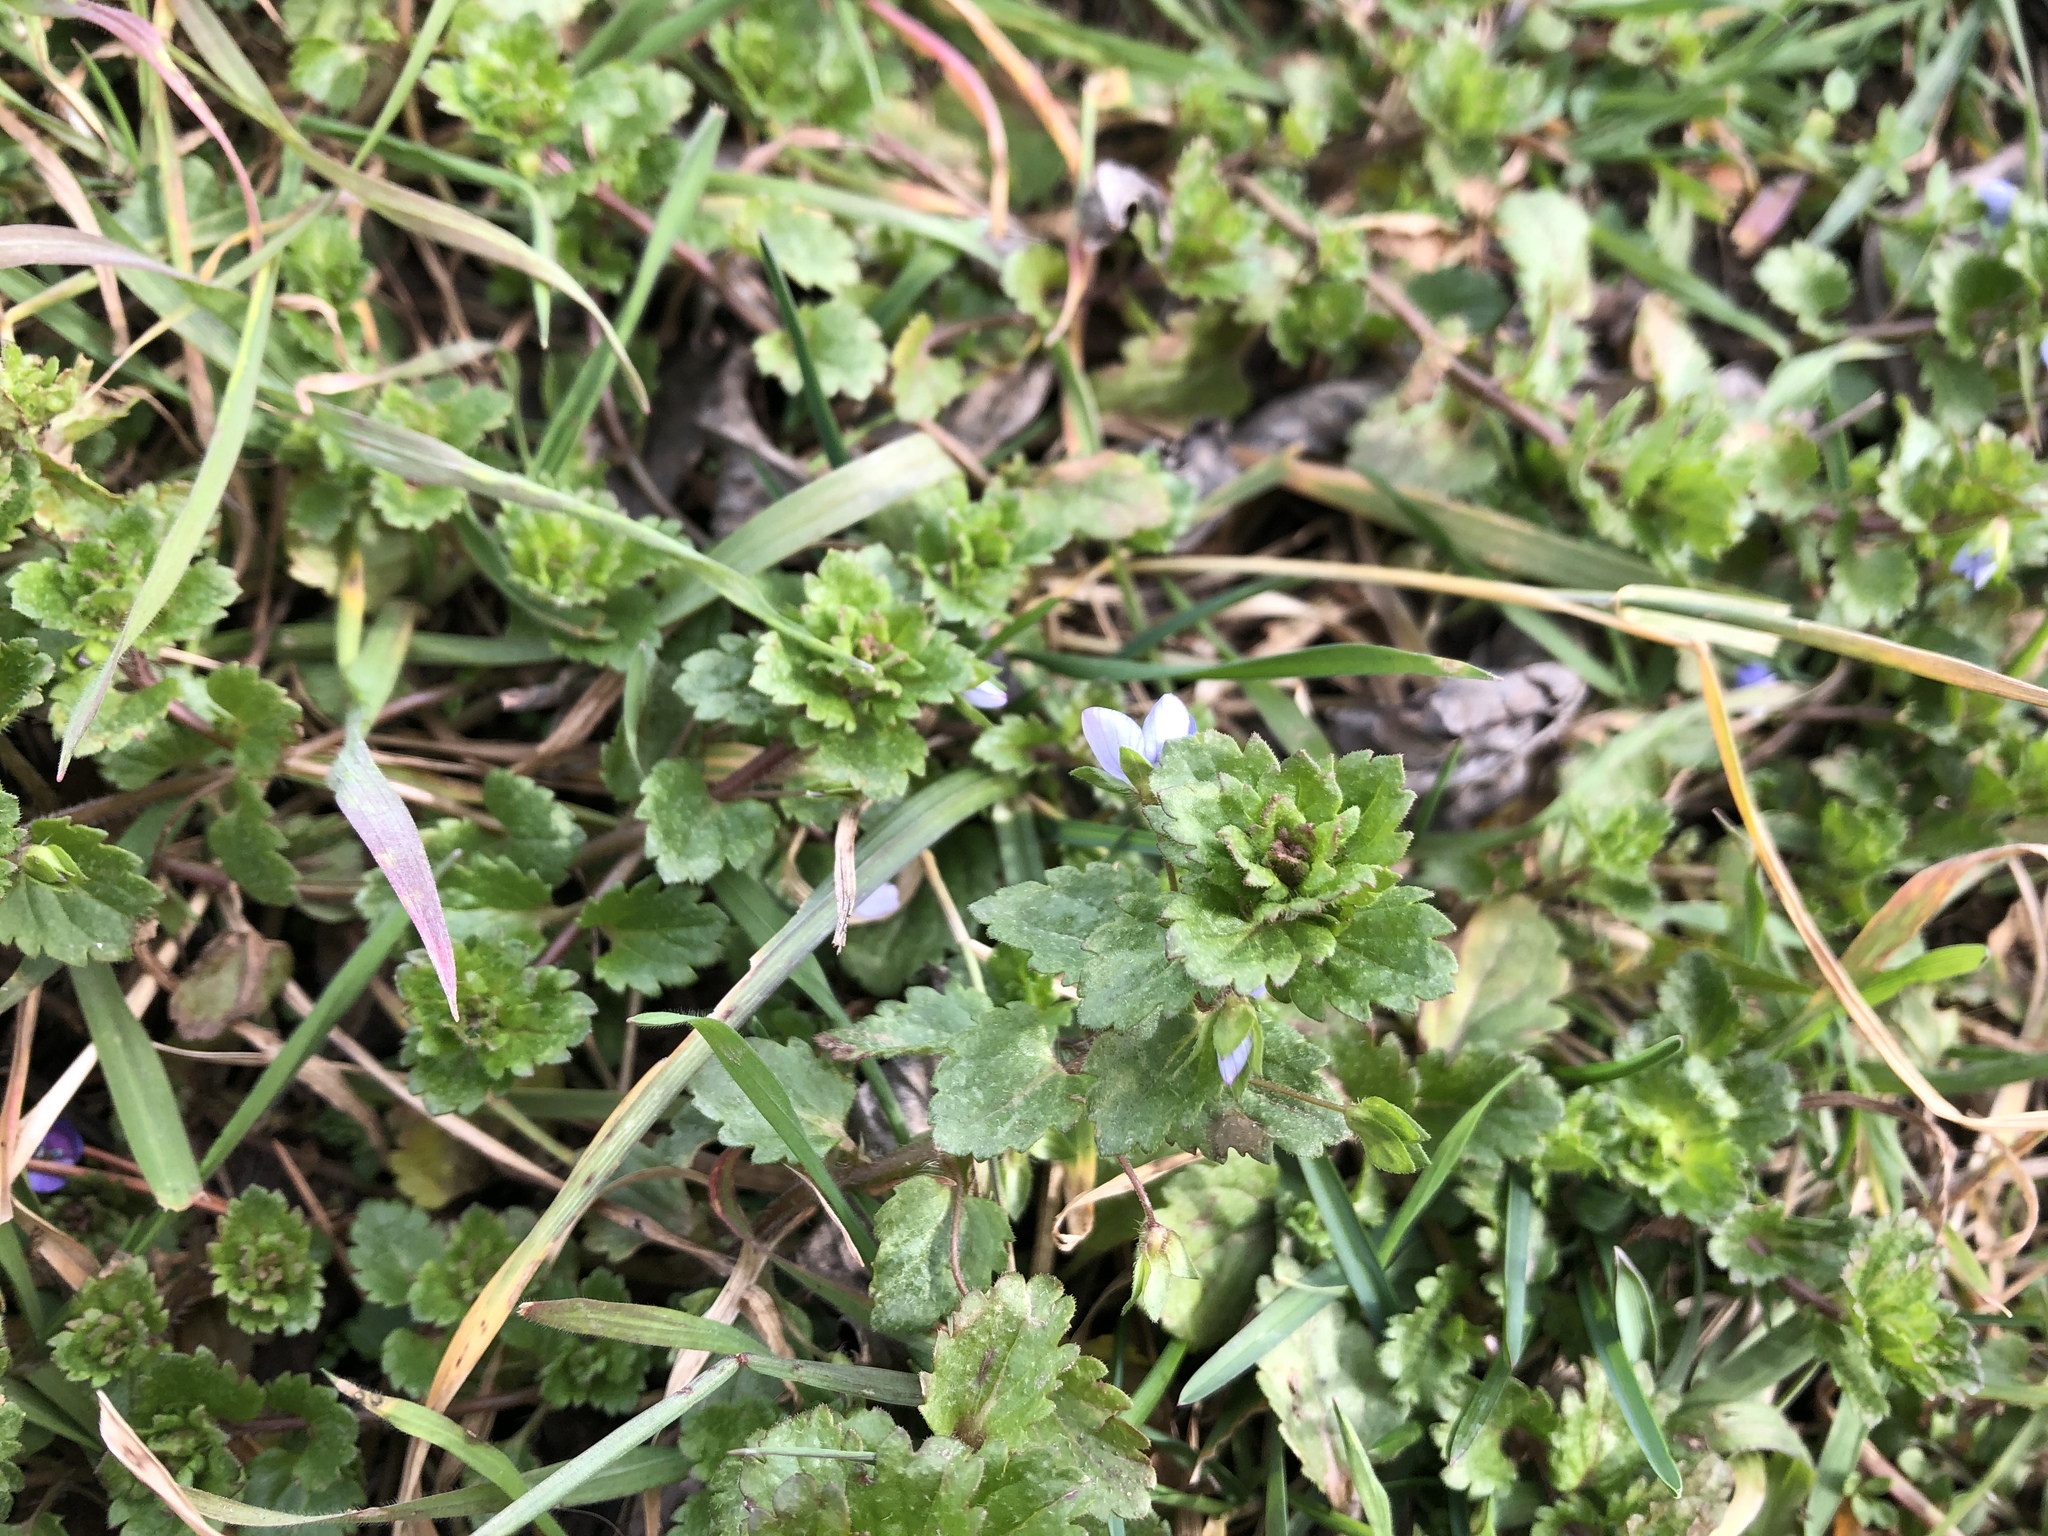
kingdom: Plantae
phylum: Tracheophyta
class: Magnoliopsida
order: Lamiales
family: Plantaginaceae
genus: Veronica
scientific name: Veronica persica
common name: Common field-speedwell
